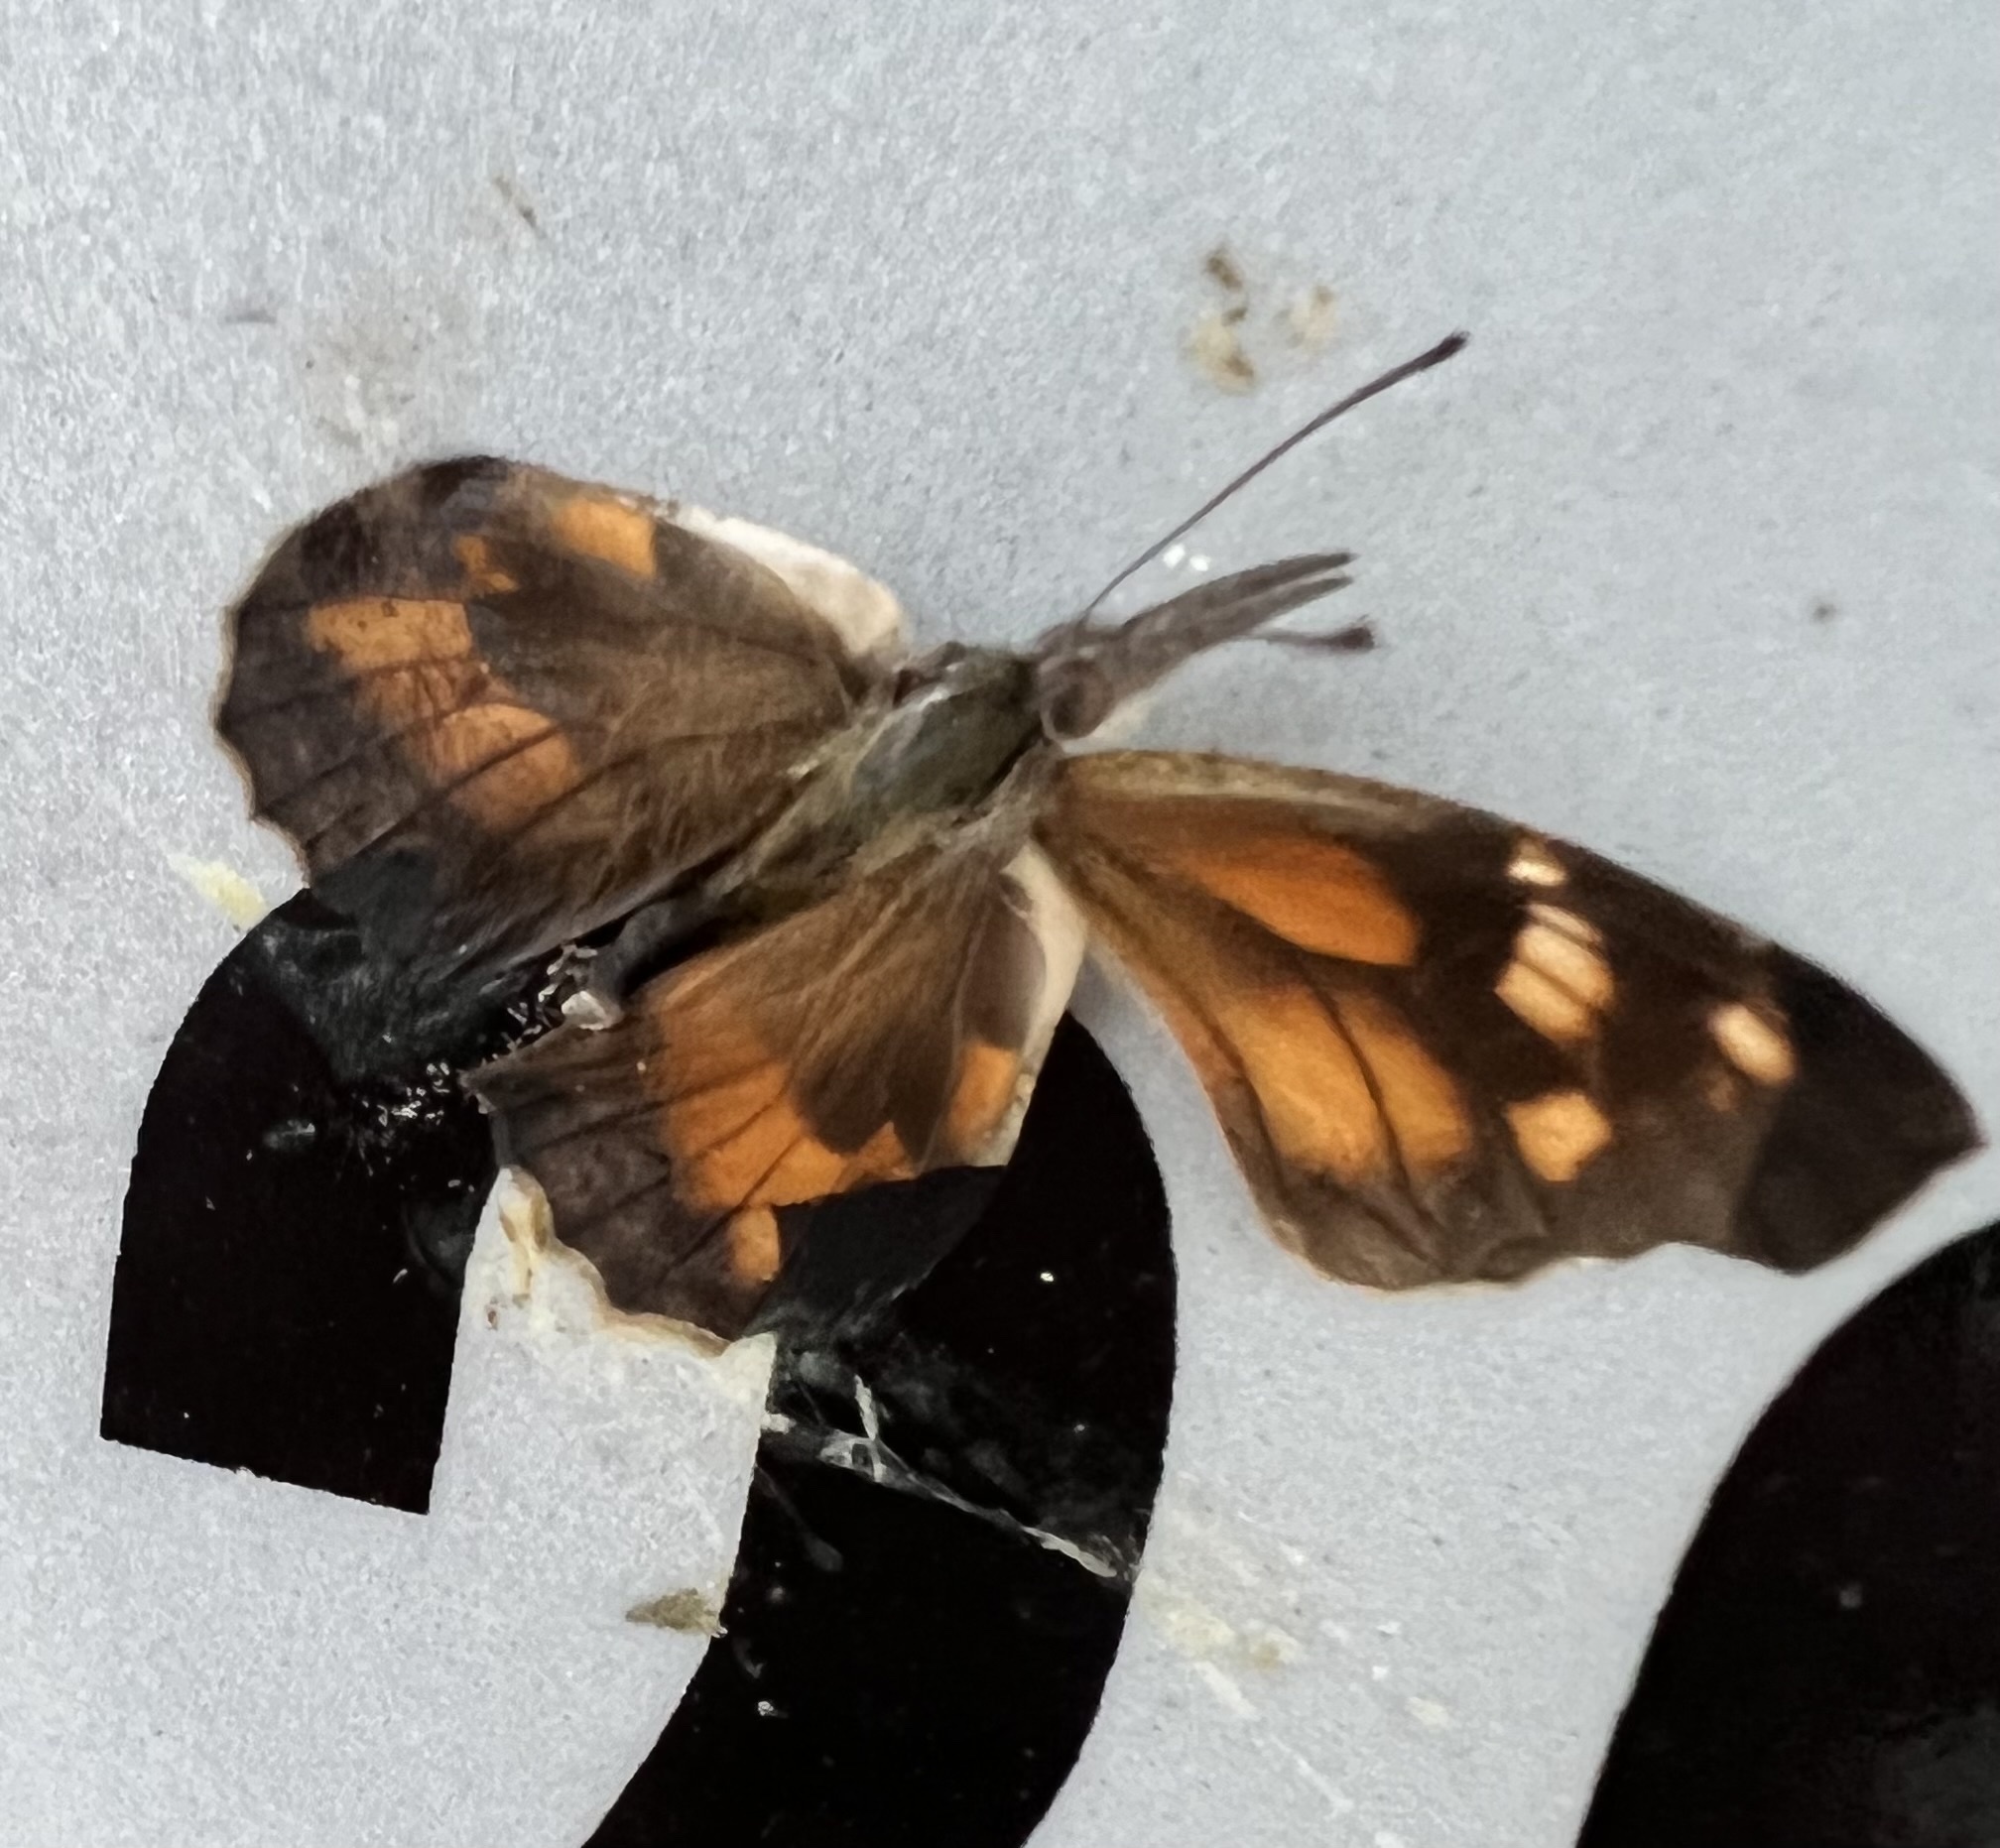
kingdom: Animalia
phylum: Arthropoda
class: Insecta
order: Lepidoptera
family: Nymphalidae
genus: Libytheana
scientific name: Libytheana carinenta
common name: American snout
